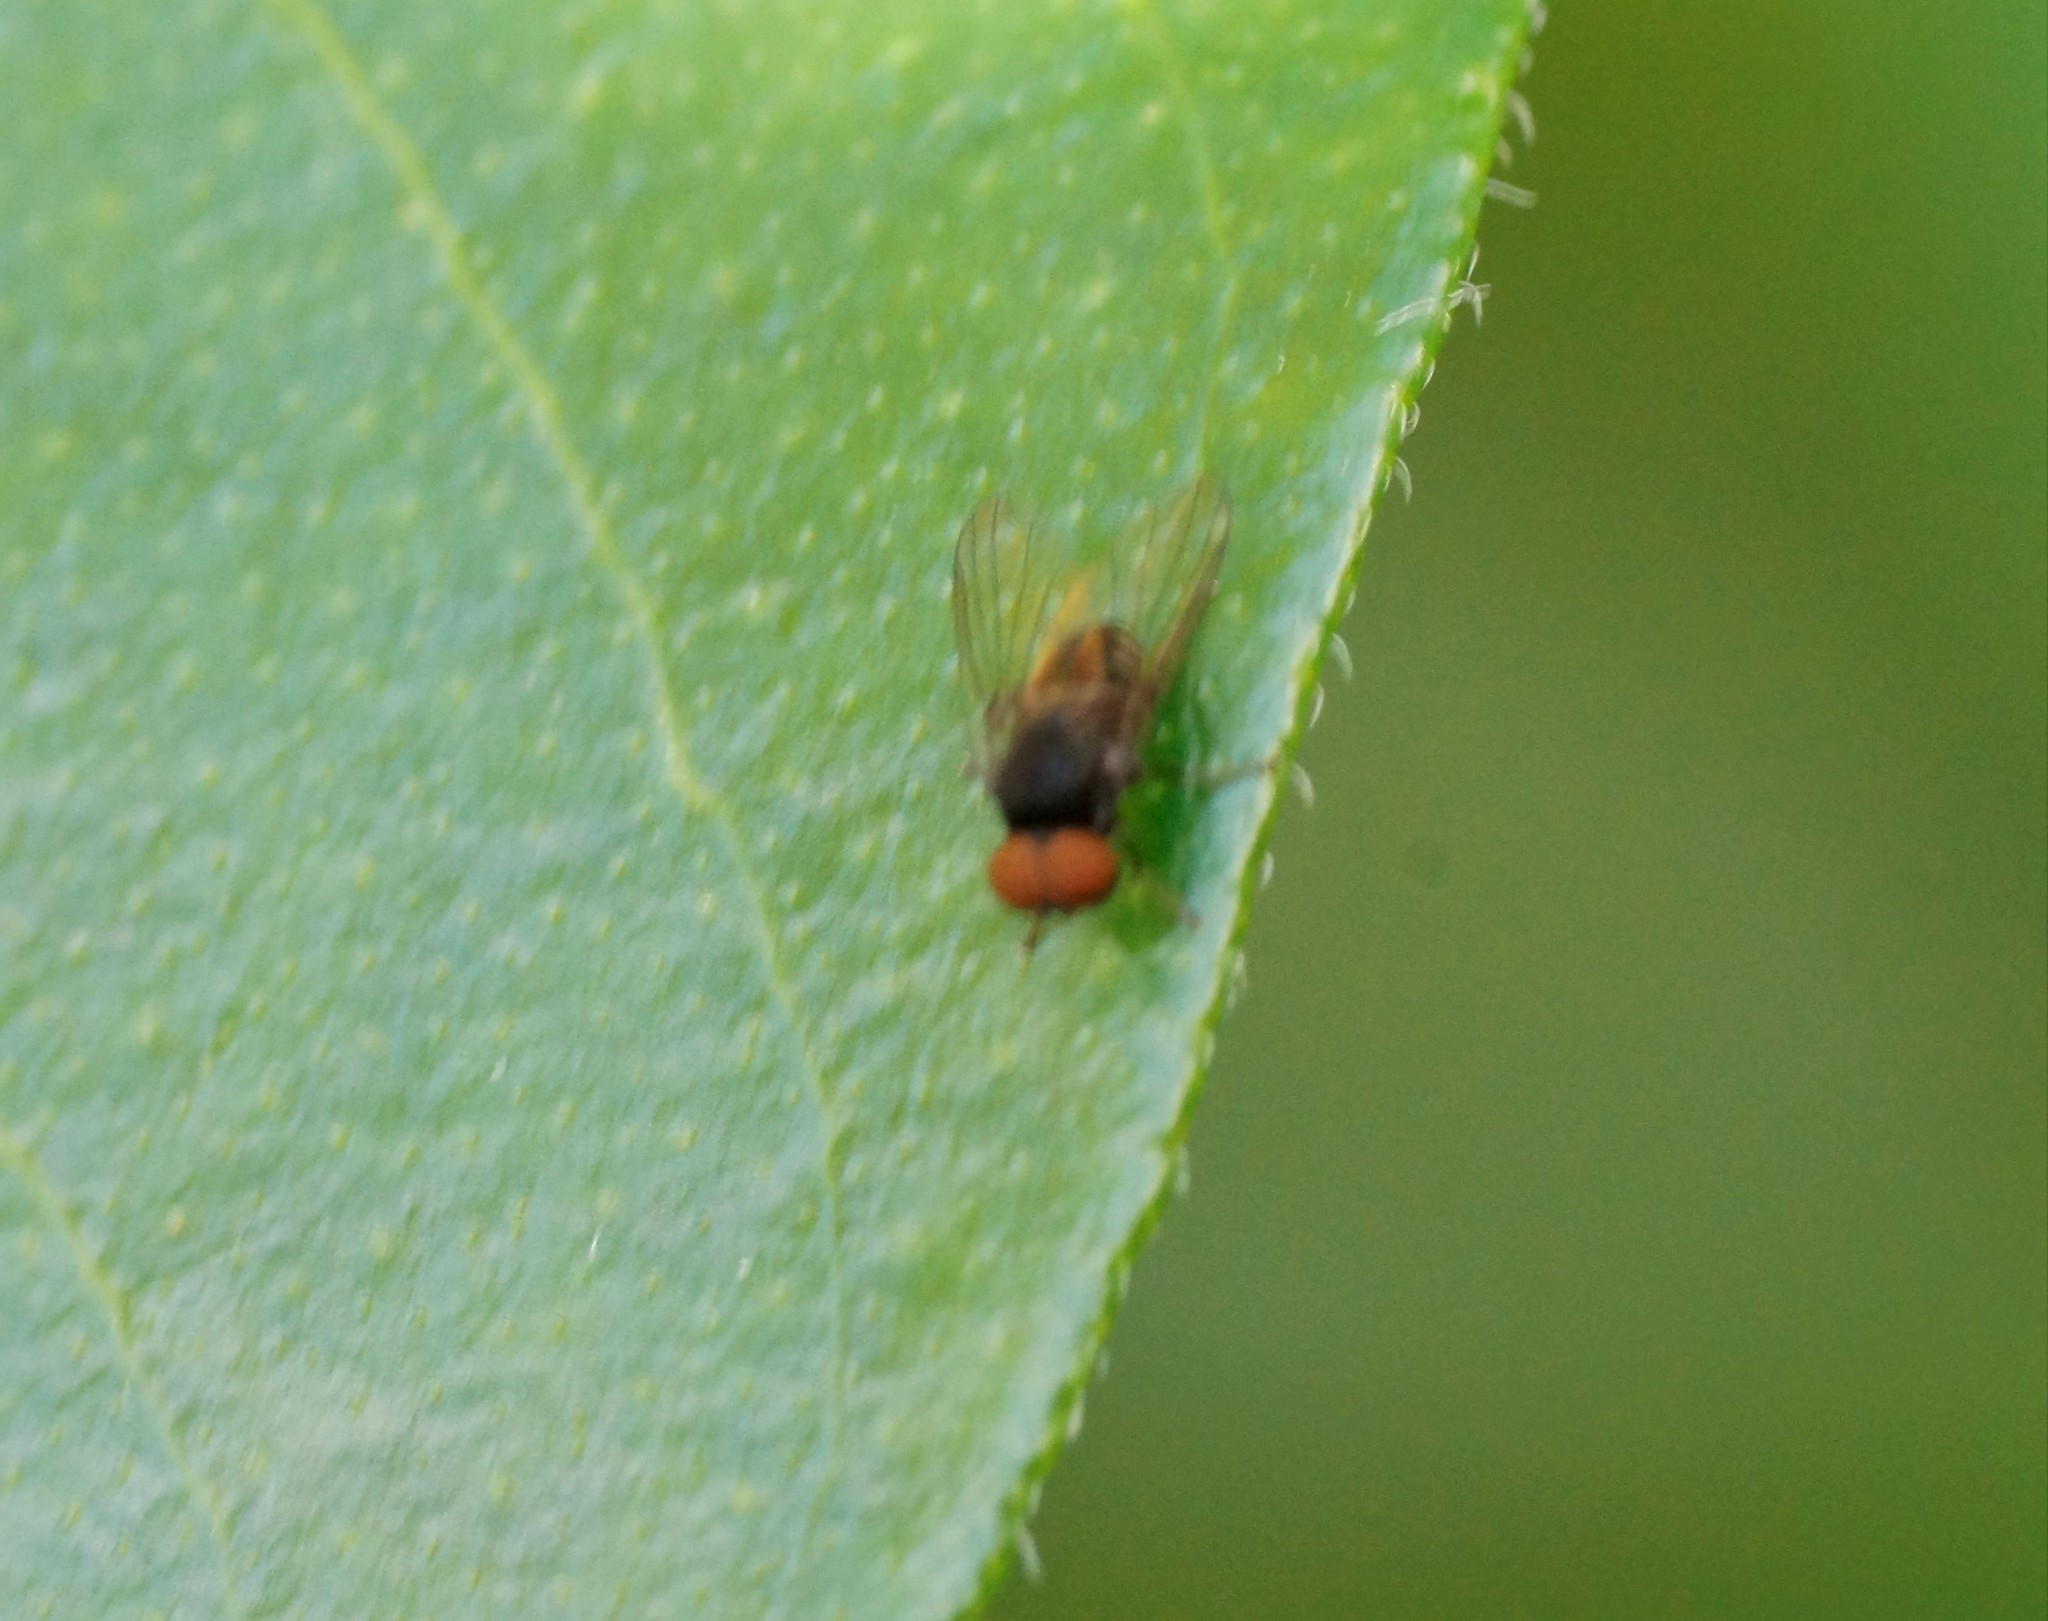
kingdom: Animalia
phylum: Arthropoda
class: Insecta
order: Diptera
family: Platypezidae
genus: Lindneromyia
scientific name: Lindneromyia
